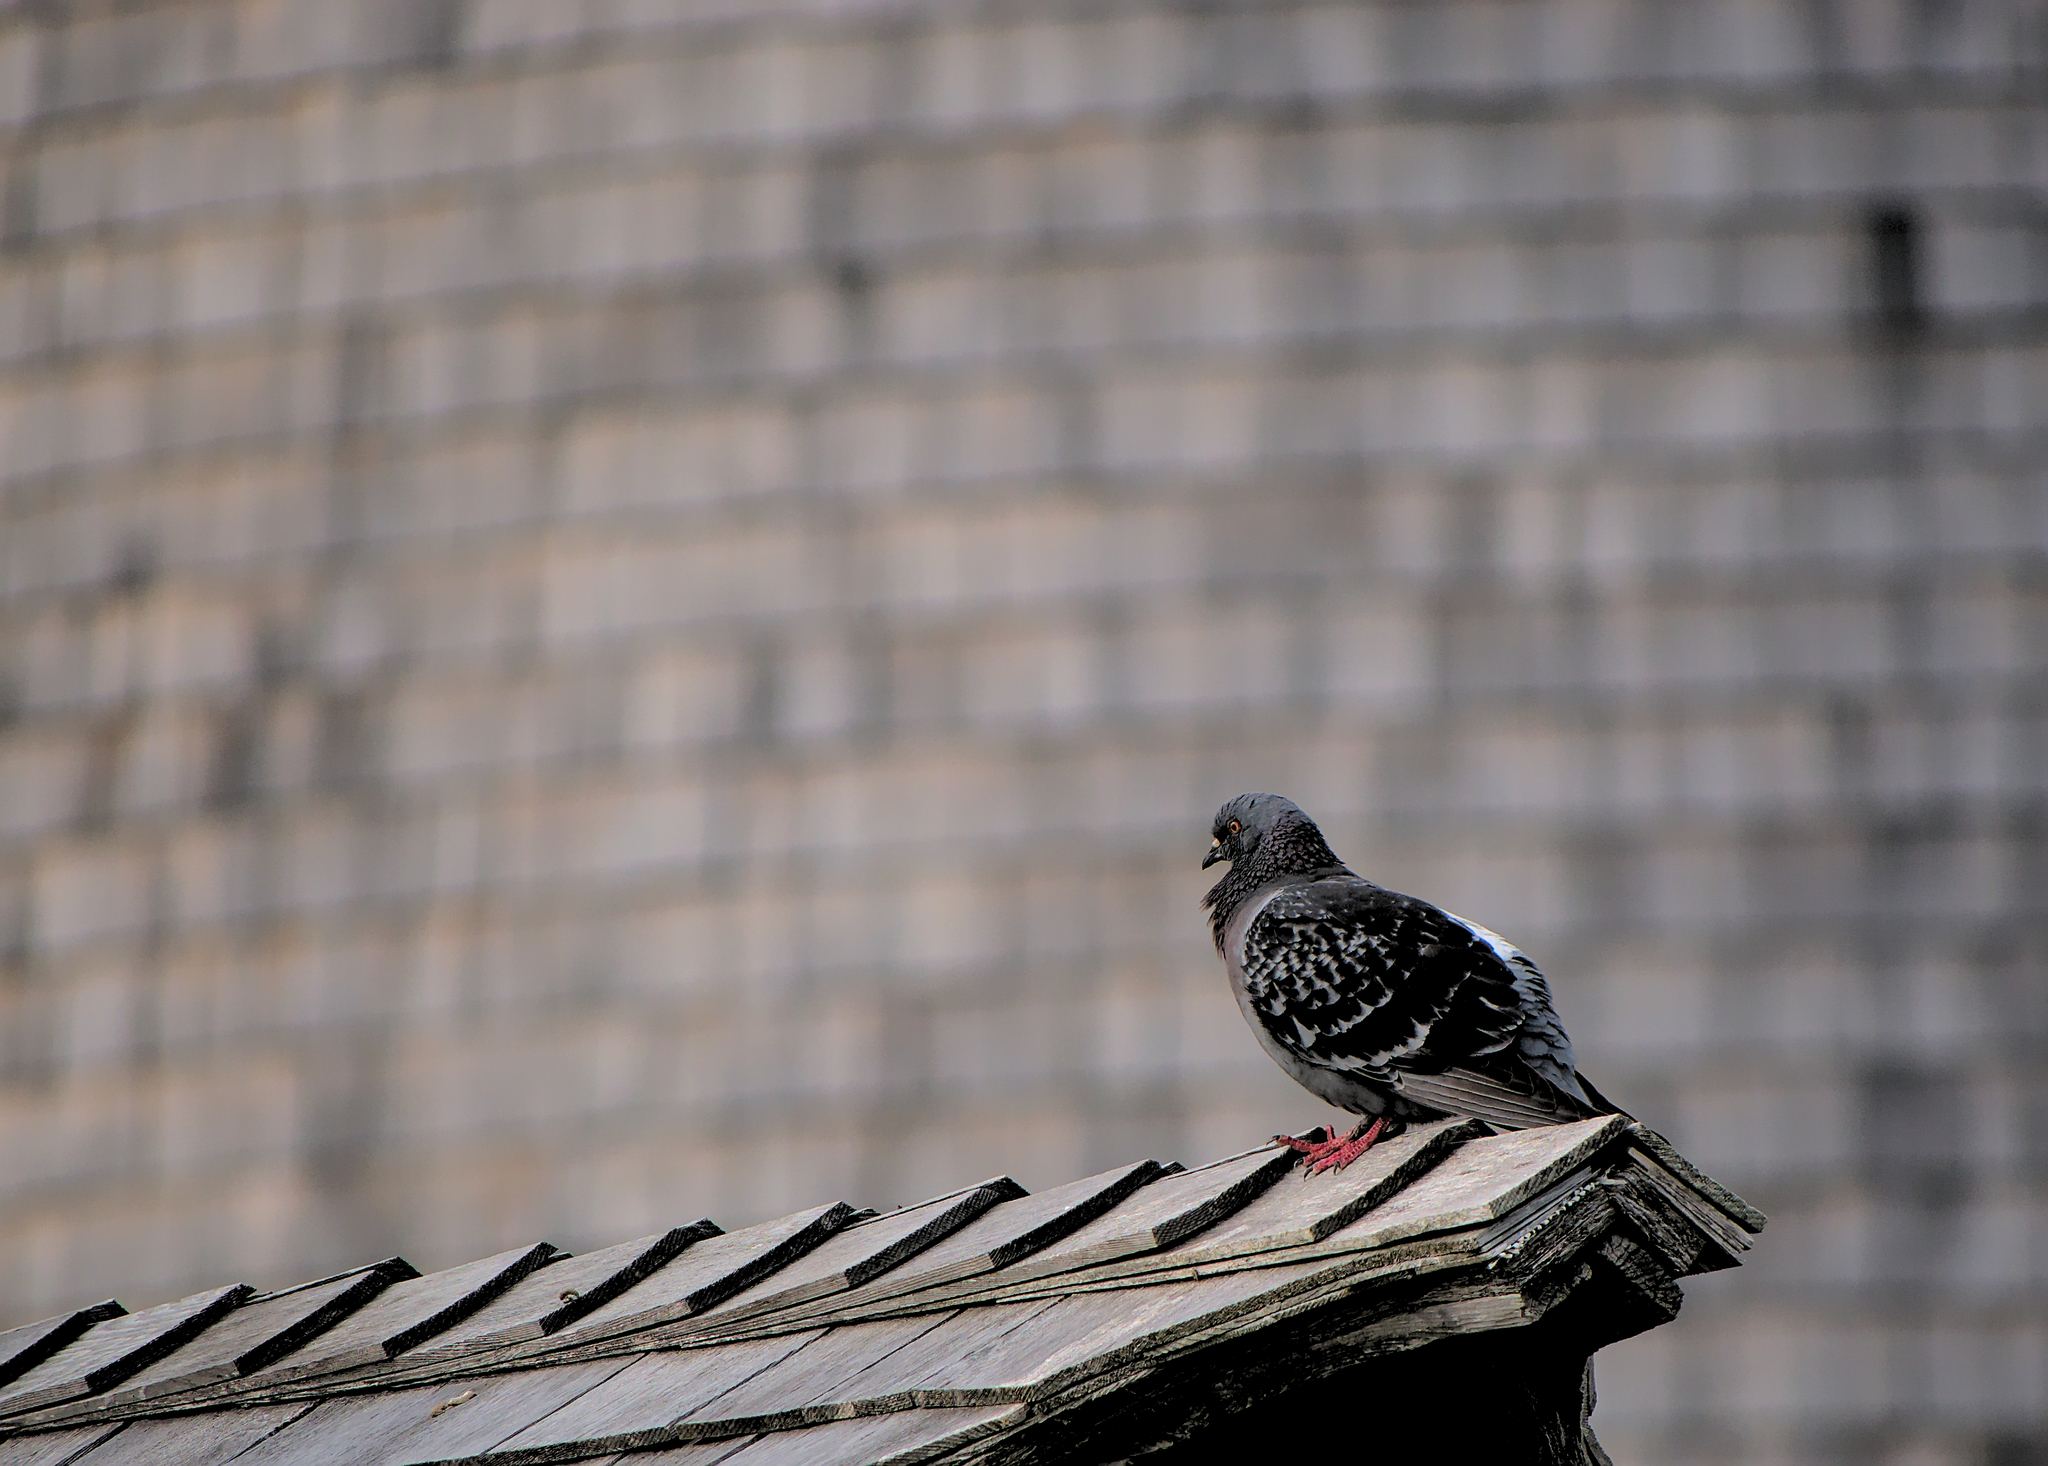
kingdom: Animalia
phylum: Chordata
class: Aves
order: Columbiformes
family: Columbidae
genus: Columba
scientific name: Columba livia
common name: Rock pigeon
